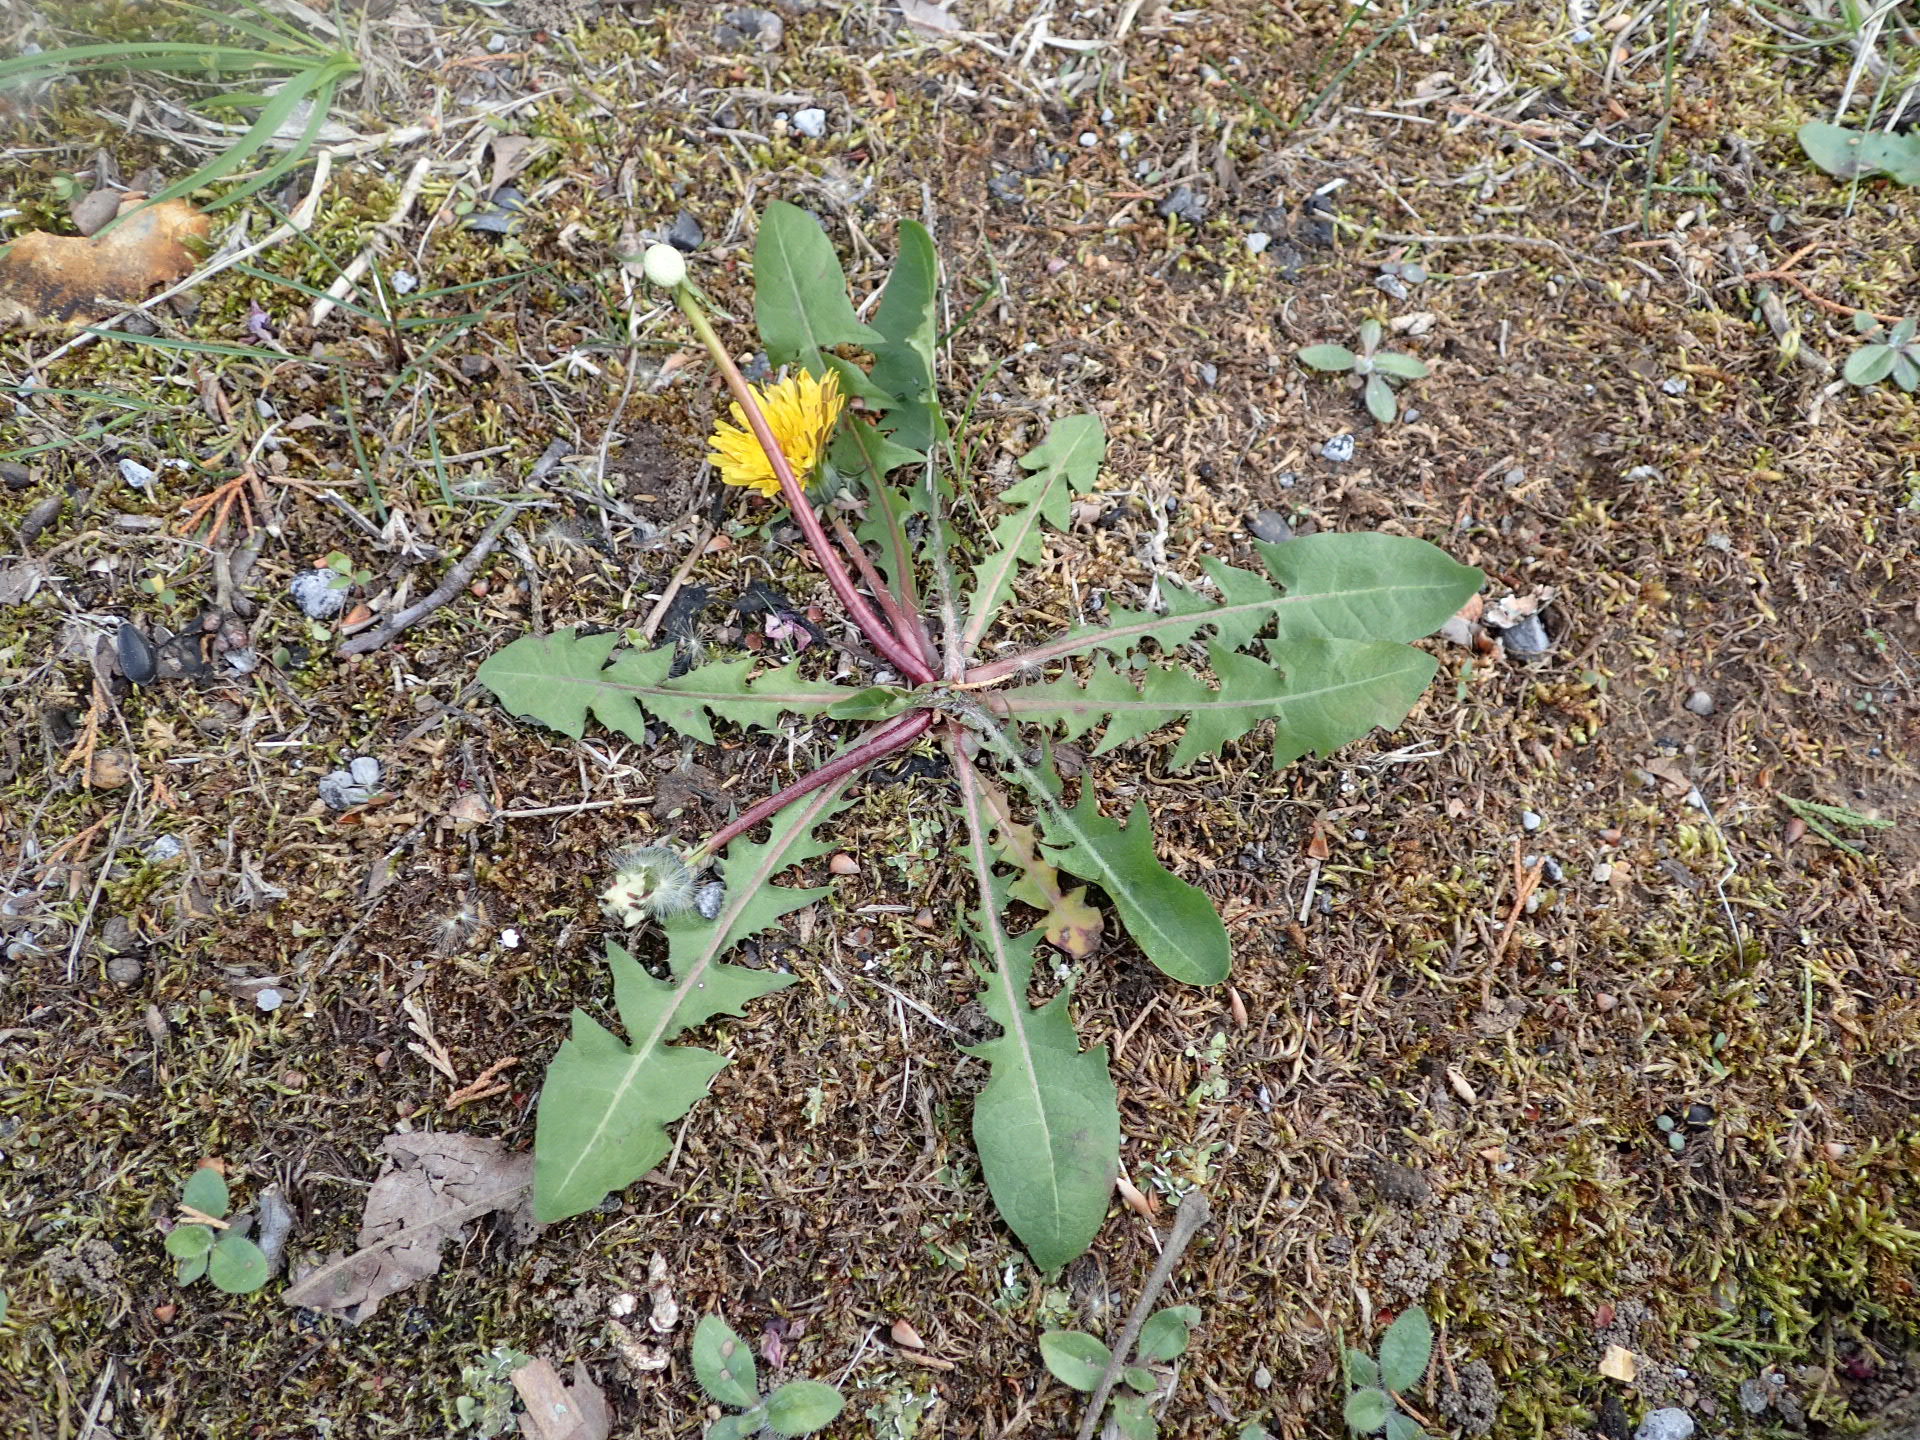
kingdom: Plantae
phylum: Tracheophyta
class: Magnoliopsida
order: Asterales
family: Asteraceae
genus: Taraxacum
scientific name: Taraxacum officinale
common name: Common dandelion
